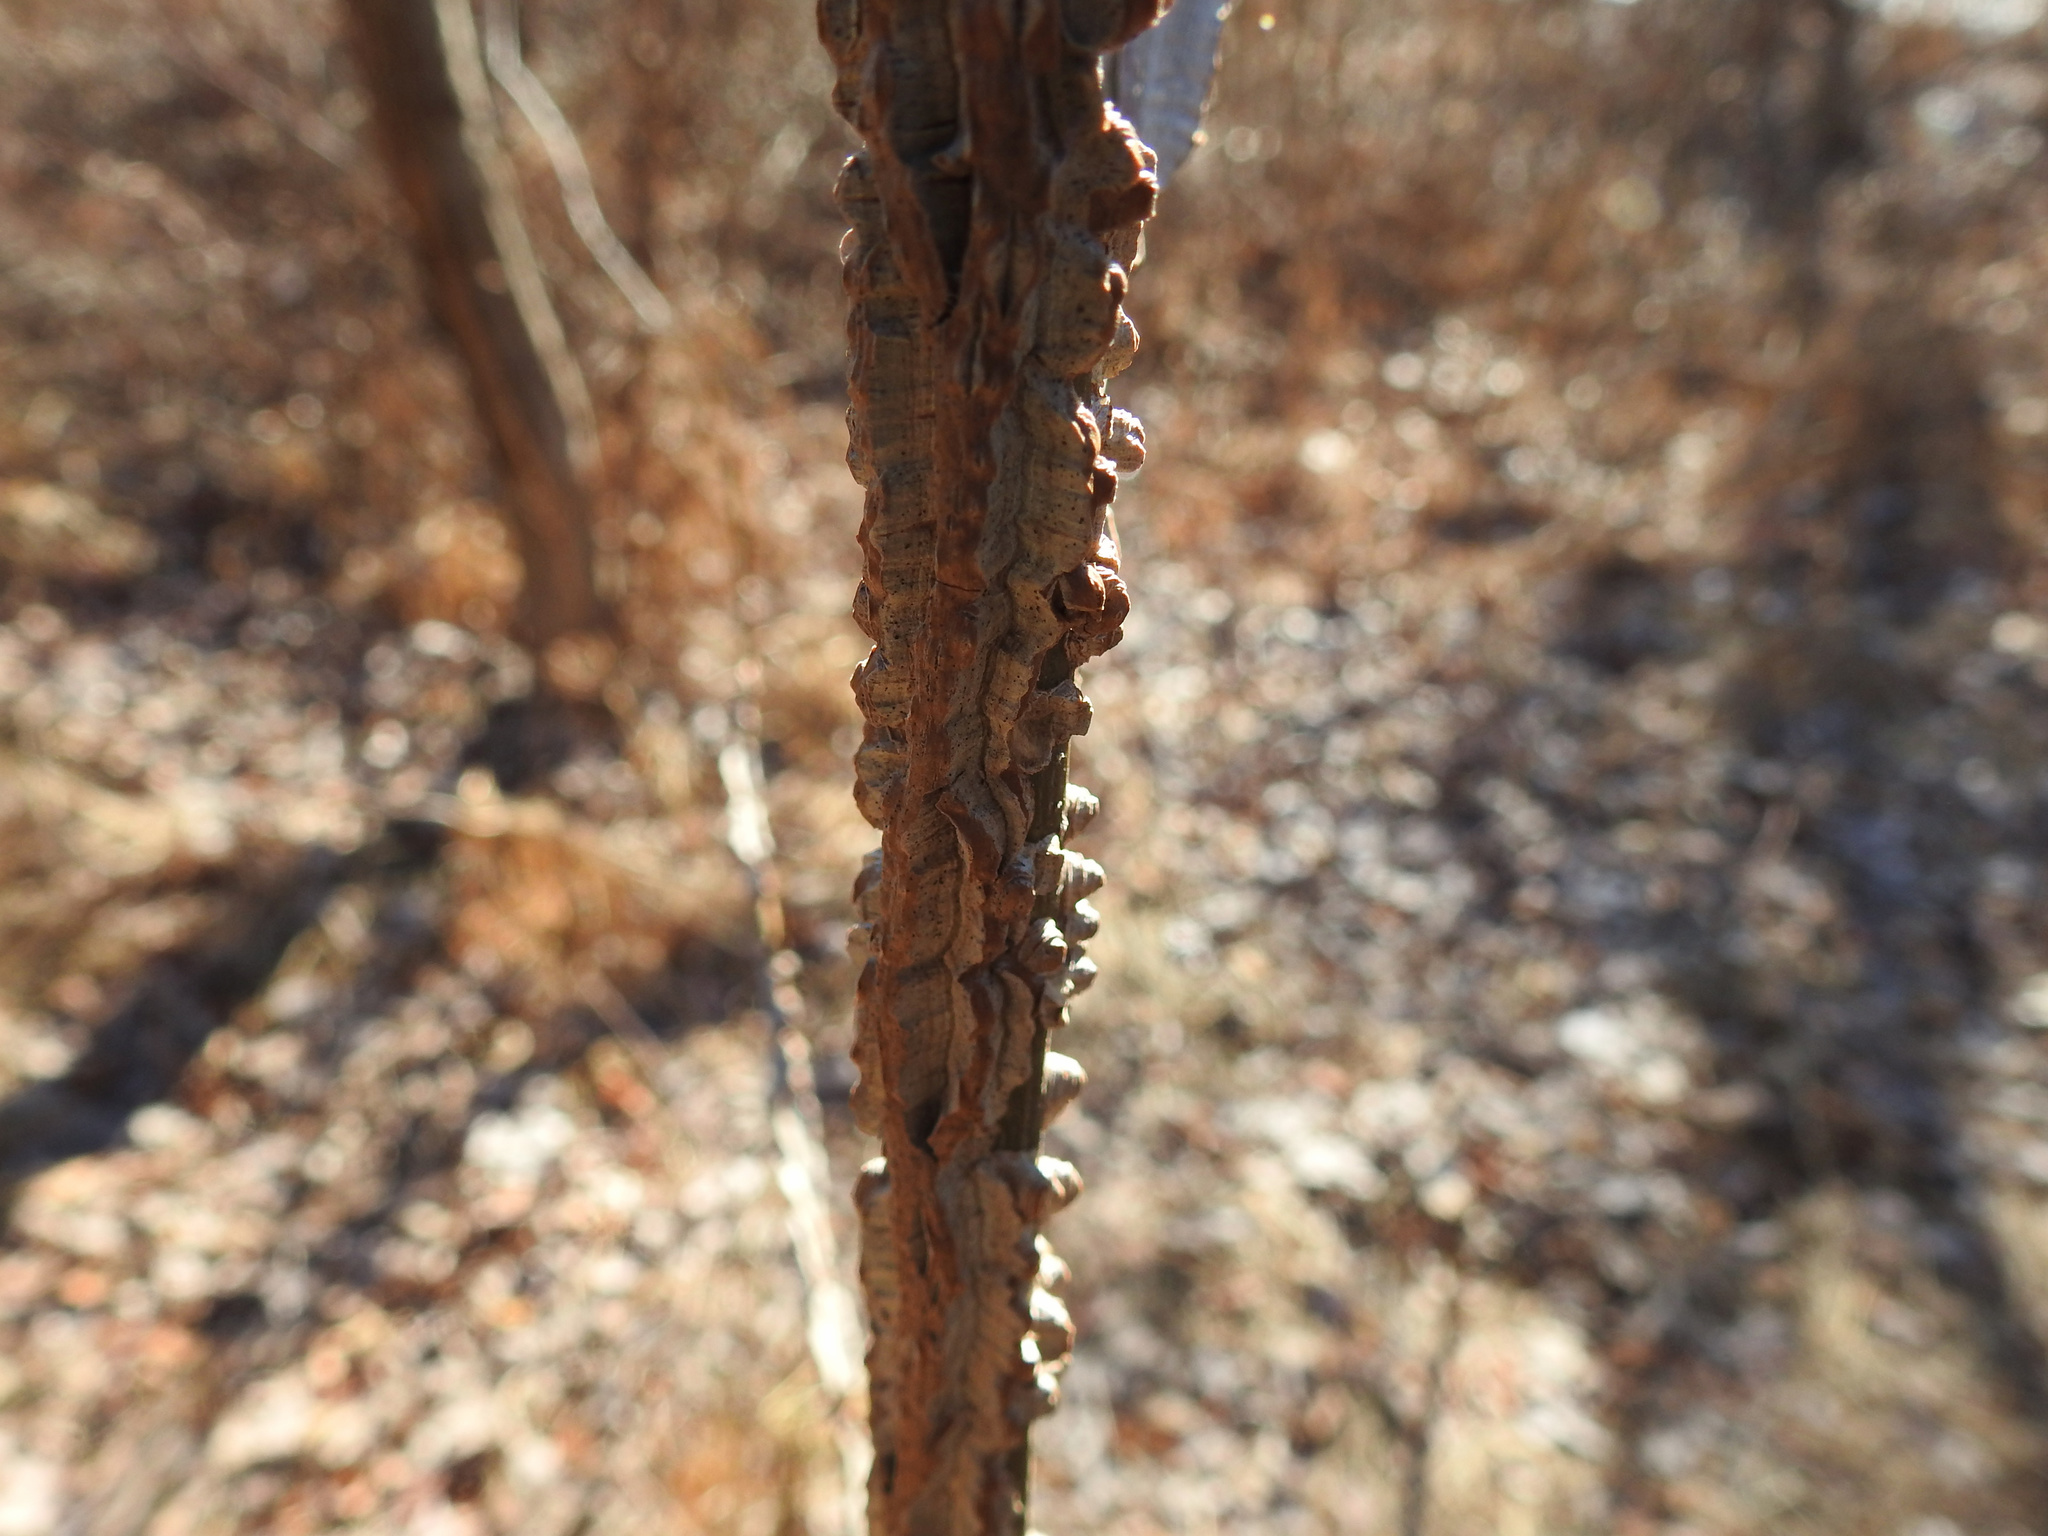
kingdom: Plantae
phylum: Tracheophyta
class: Magnoliopsida
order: Saxifragales
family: Altingiaceae
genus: Liquidambar
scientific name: Liquidambar styraciflua
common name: Sweet gum
